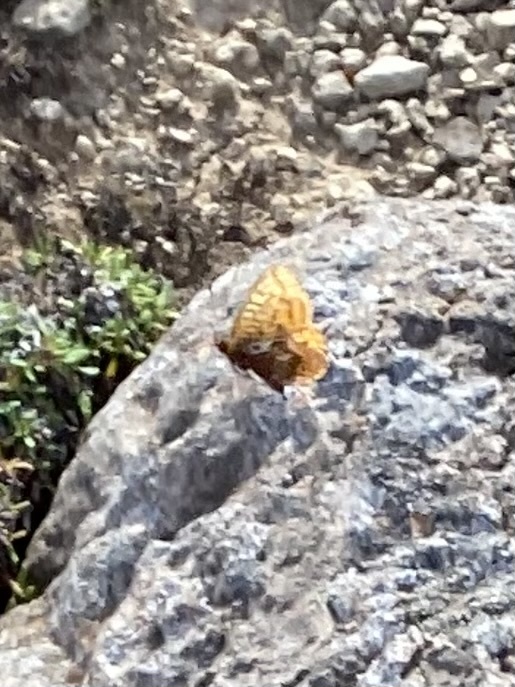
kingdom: Animalia
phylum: Arthropoda
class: Insecta
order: Lepidoptera
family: Nymphalidae
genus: Boloria
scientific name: Boloria frigga
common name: Frigga's fritillary
